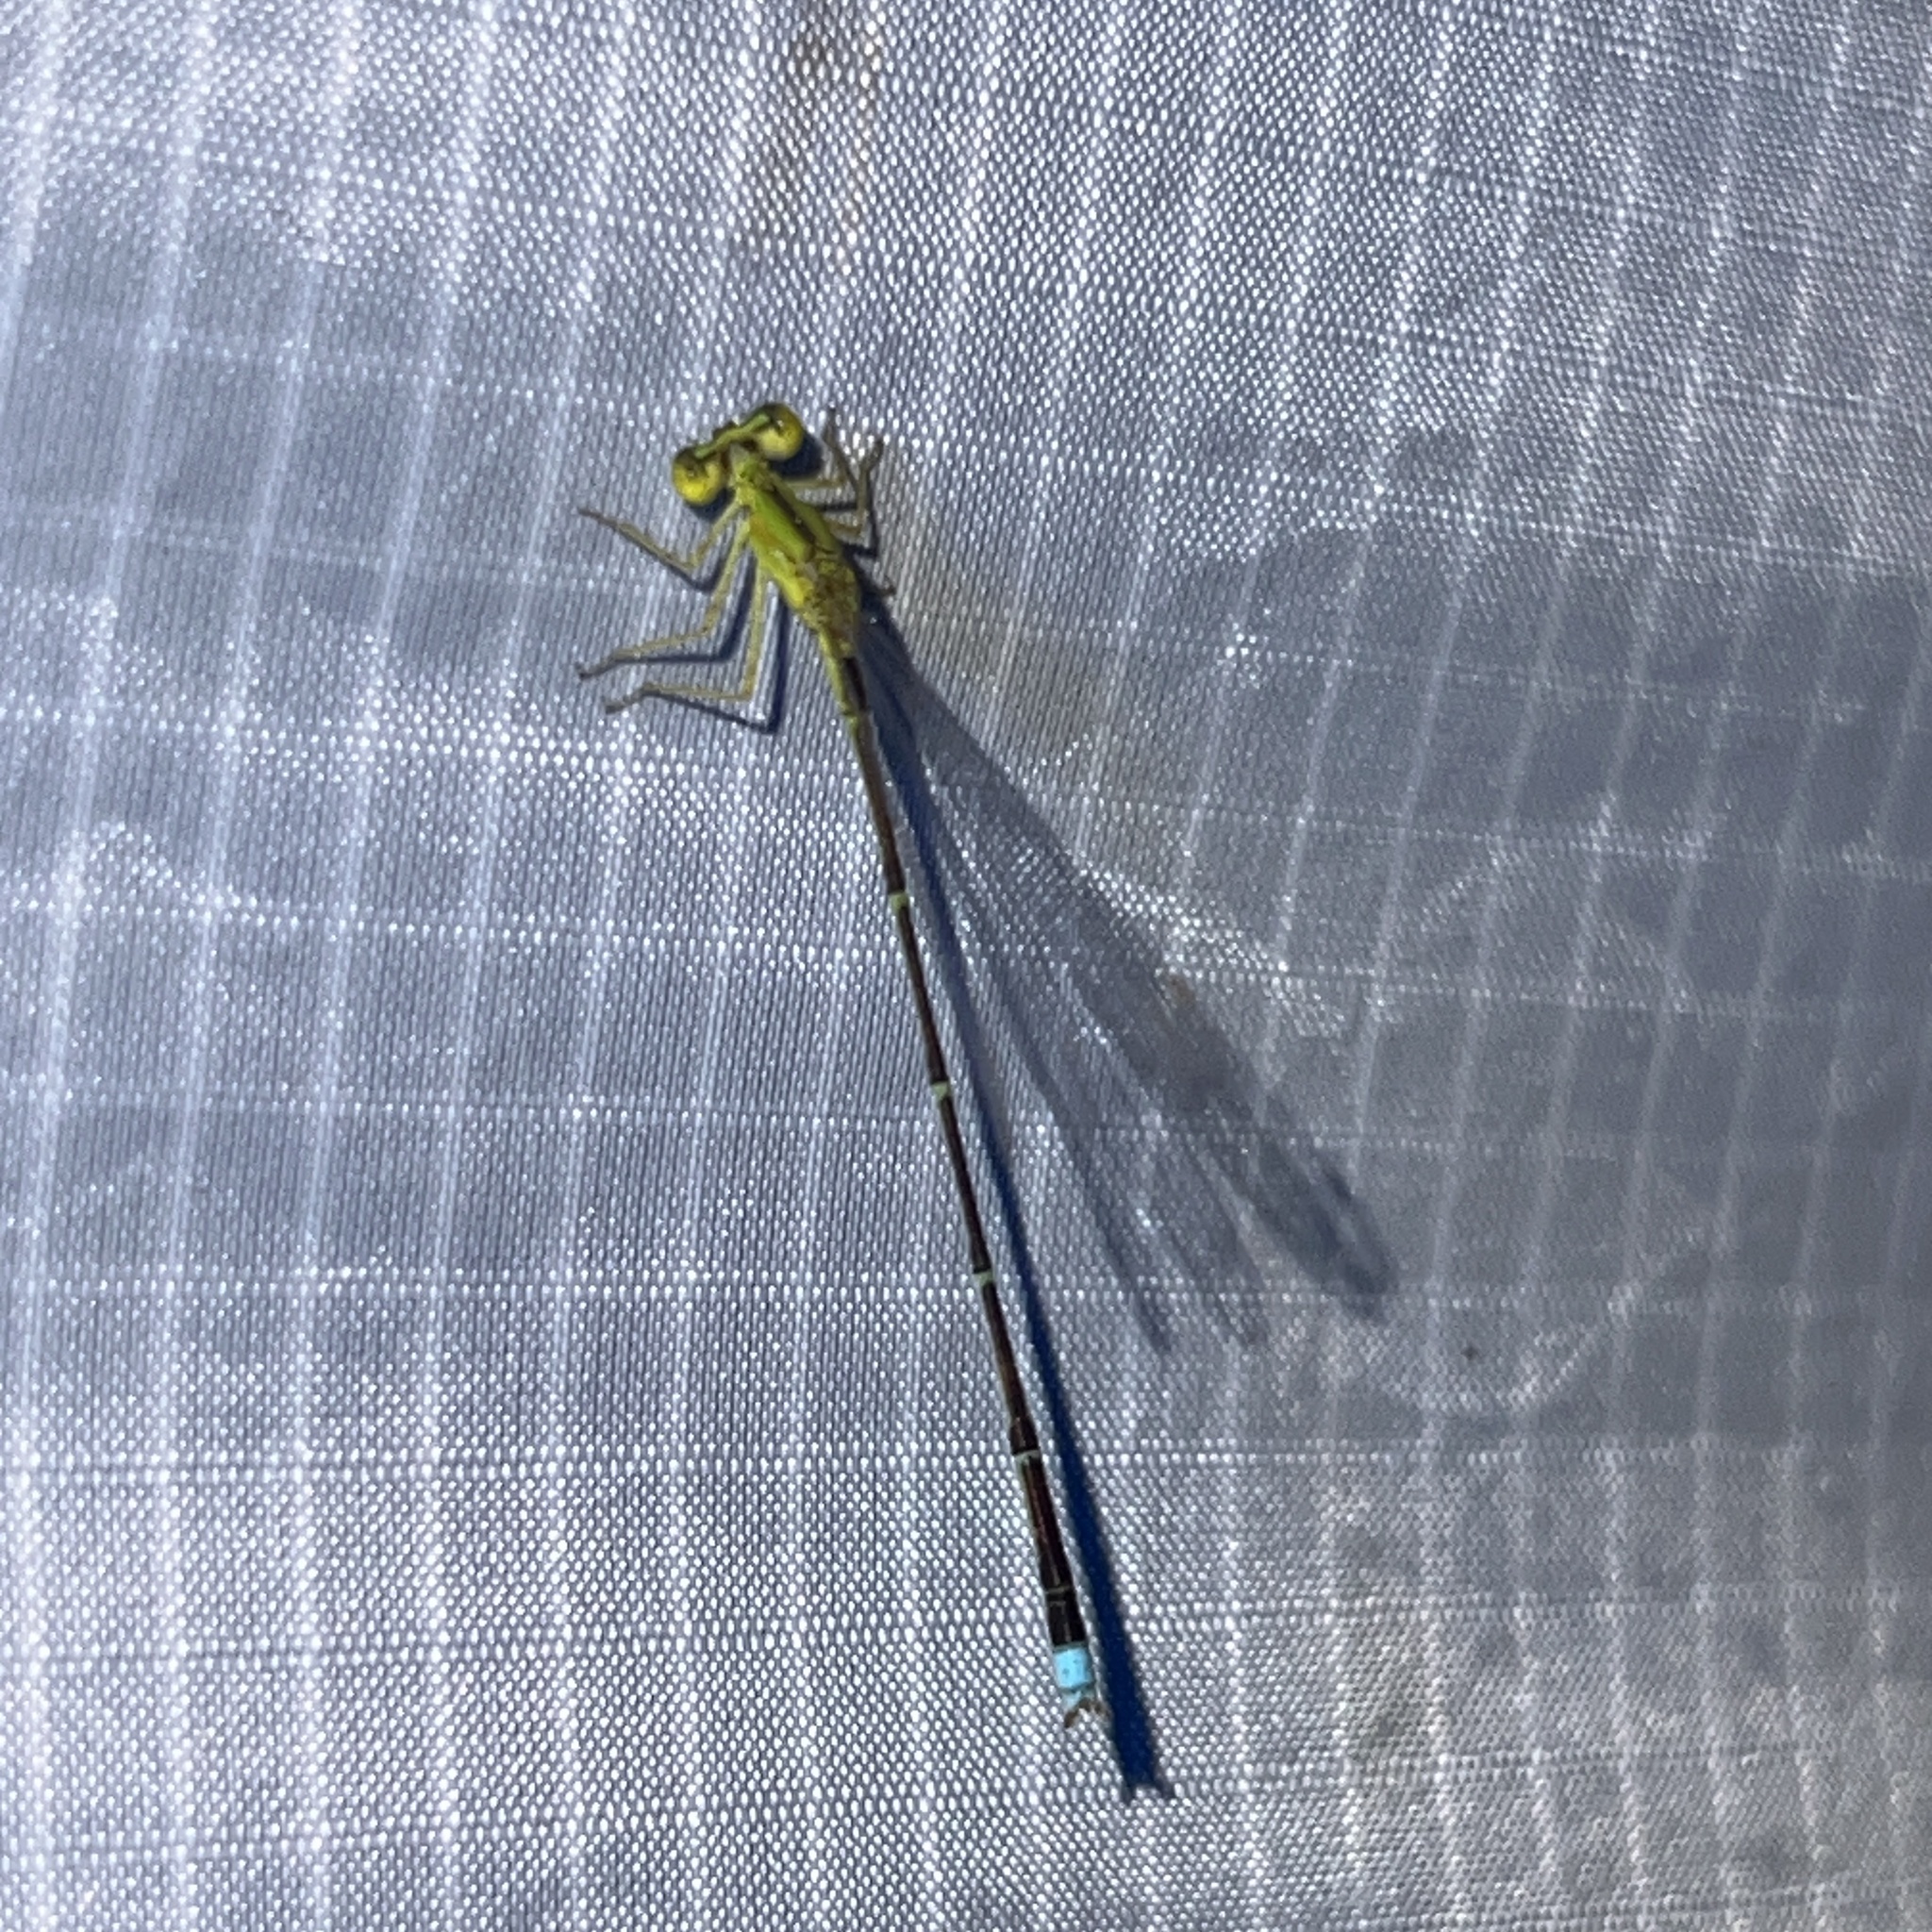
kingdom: Animalia
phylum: Arthropoda
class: Insecta
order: Odonata
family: Coenagrionidae
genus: Enallagma
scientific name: Enallagma vesperum
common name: Vesper bluet
